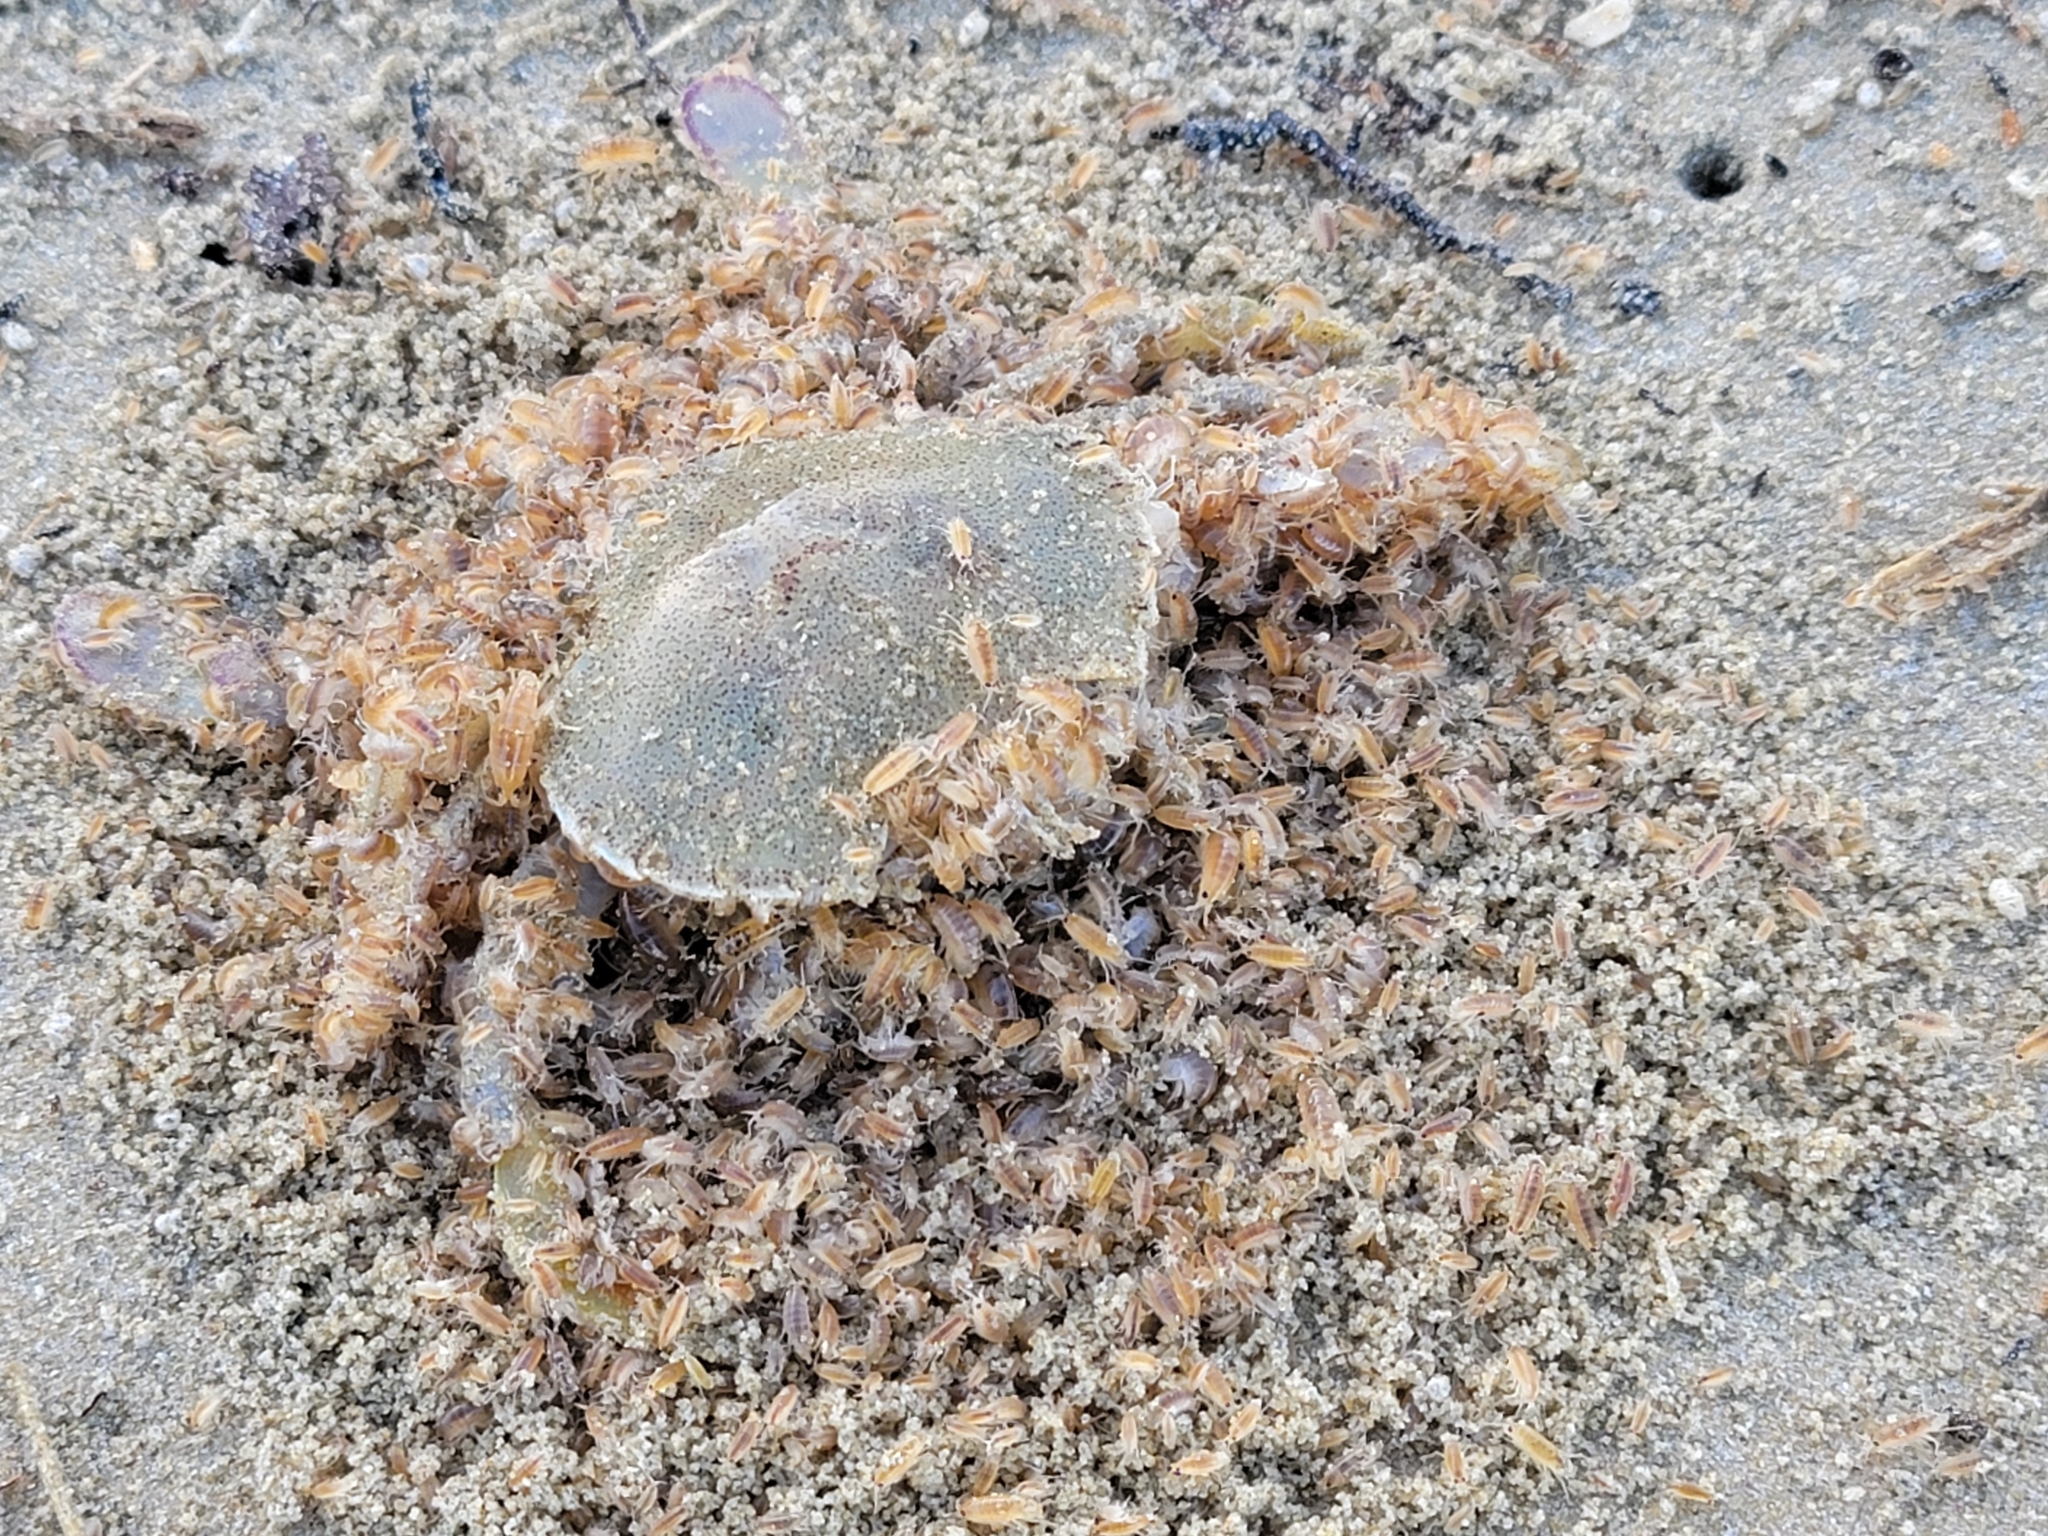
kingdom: Animalia
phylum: Arthropoda
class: Malacostraca
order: Decapoda
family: Ovalipidae
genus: Ovalipes
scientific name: Ovalipes catharus
